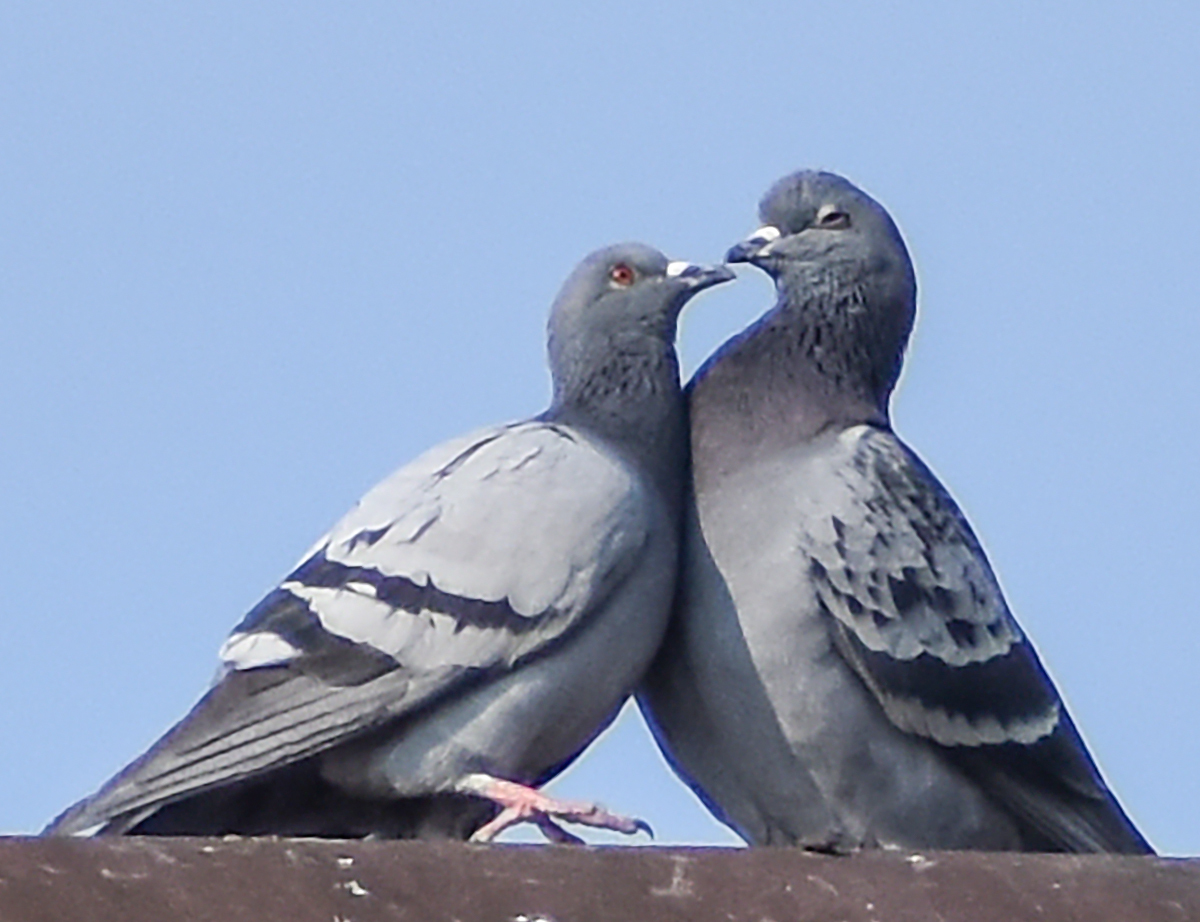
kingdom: Animalia
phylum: Chordata
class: Aves
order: Columbiformes
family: Columbidae
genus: Columba
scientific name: Columba livia
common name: Rock pigeon
